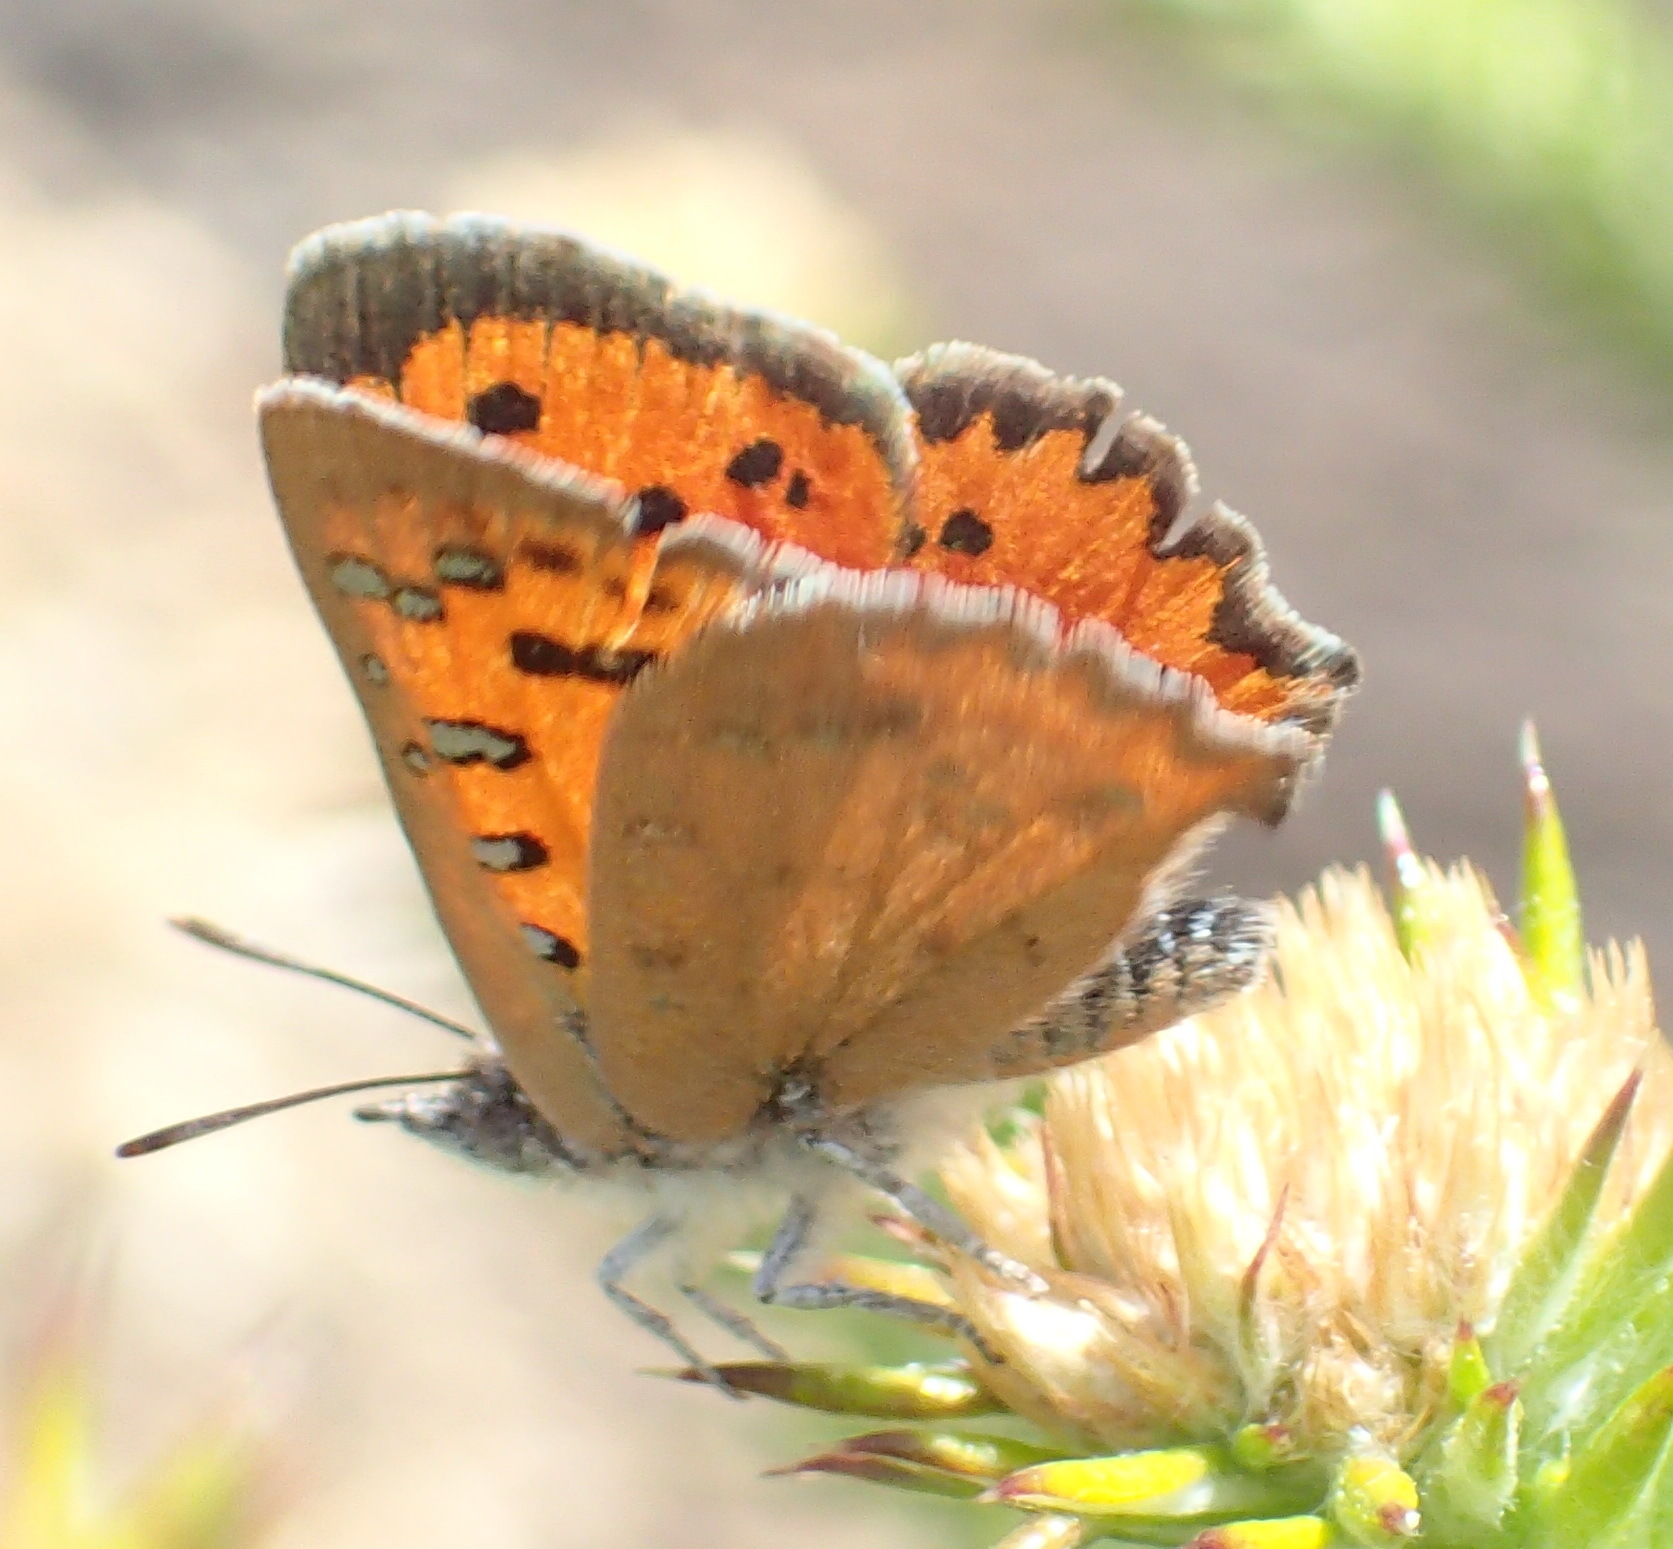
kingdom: Animalia
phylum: Arthropoda
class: Insecta
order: Lepidoptera
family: Lycaenidae
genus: Zeritis
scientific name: Zeritis chrysaor
